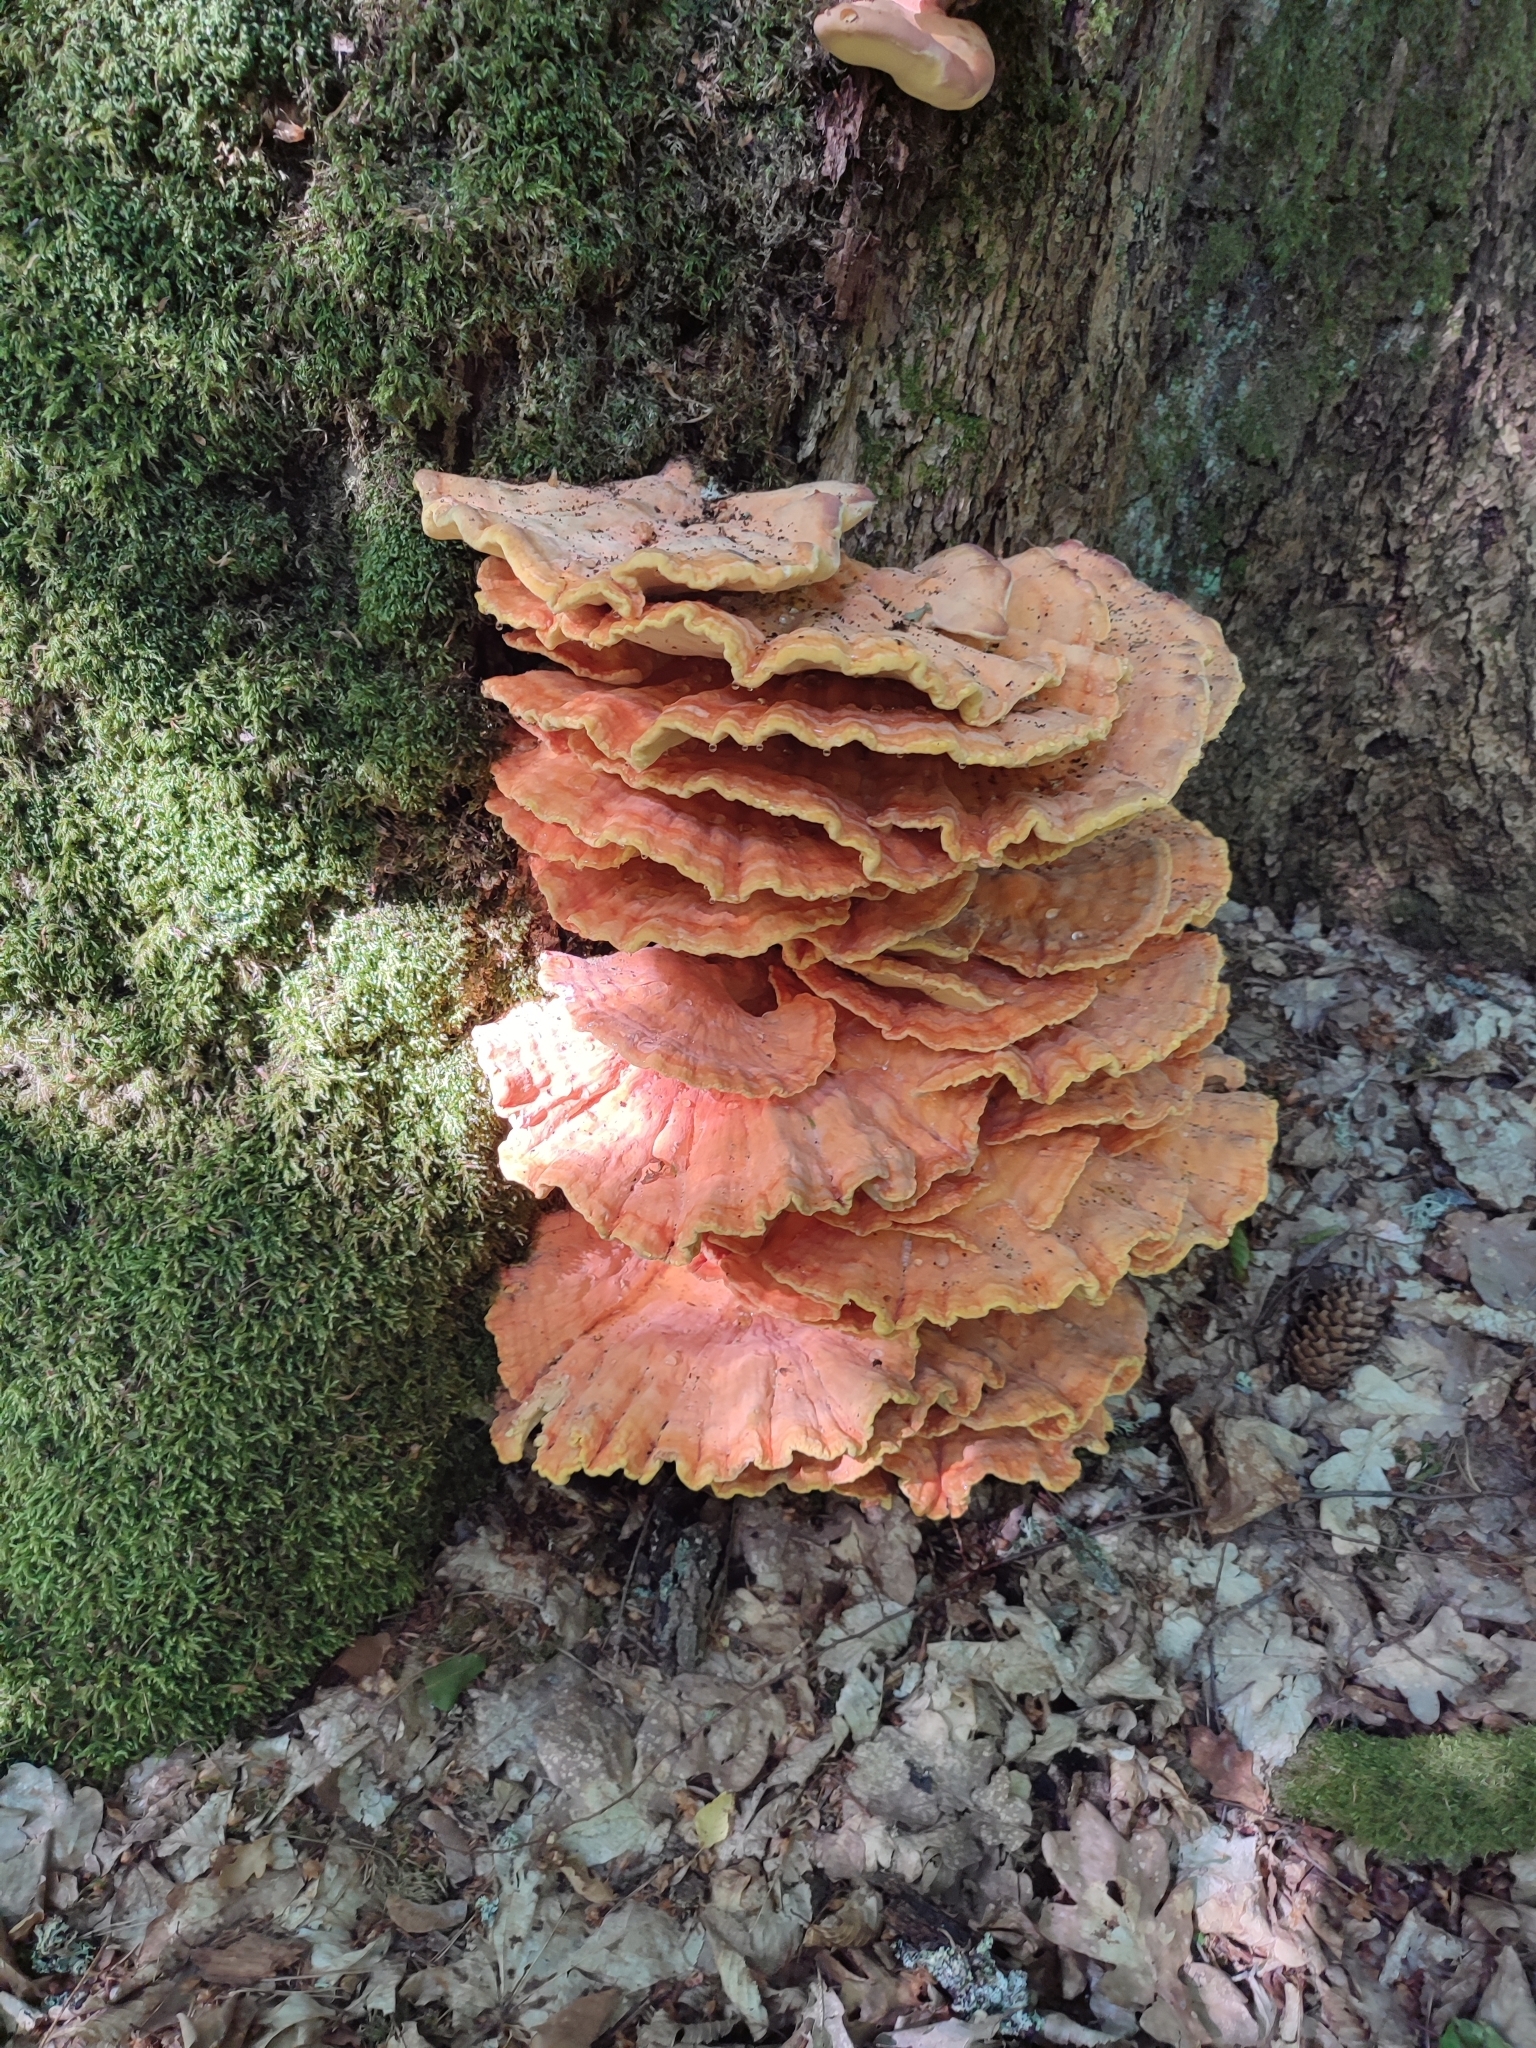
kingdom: Fungi
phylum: Basidiomycota
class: Agaricomycetes
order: Polyporales
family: Laetiporaceae
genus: Laetiporus
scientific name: Laetiporus sulphureus
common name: Chicken of the woods
